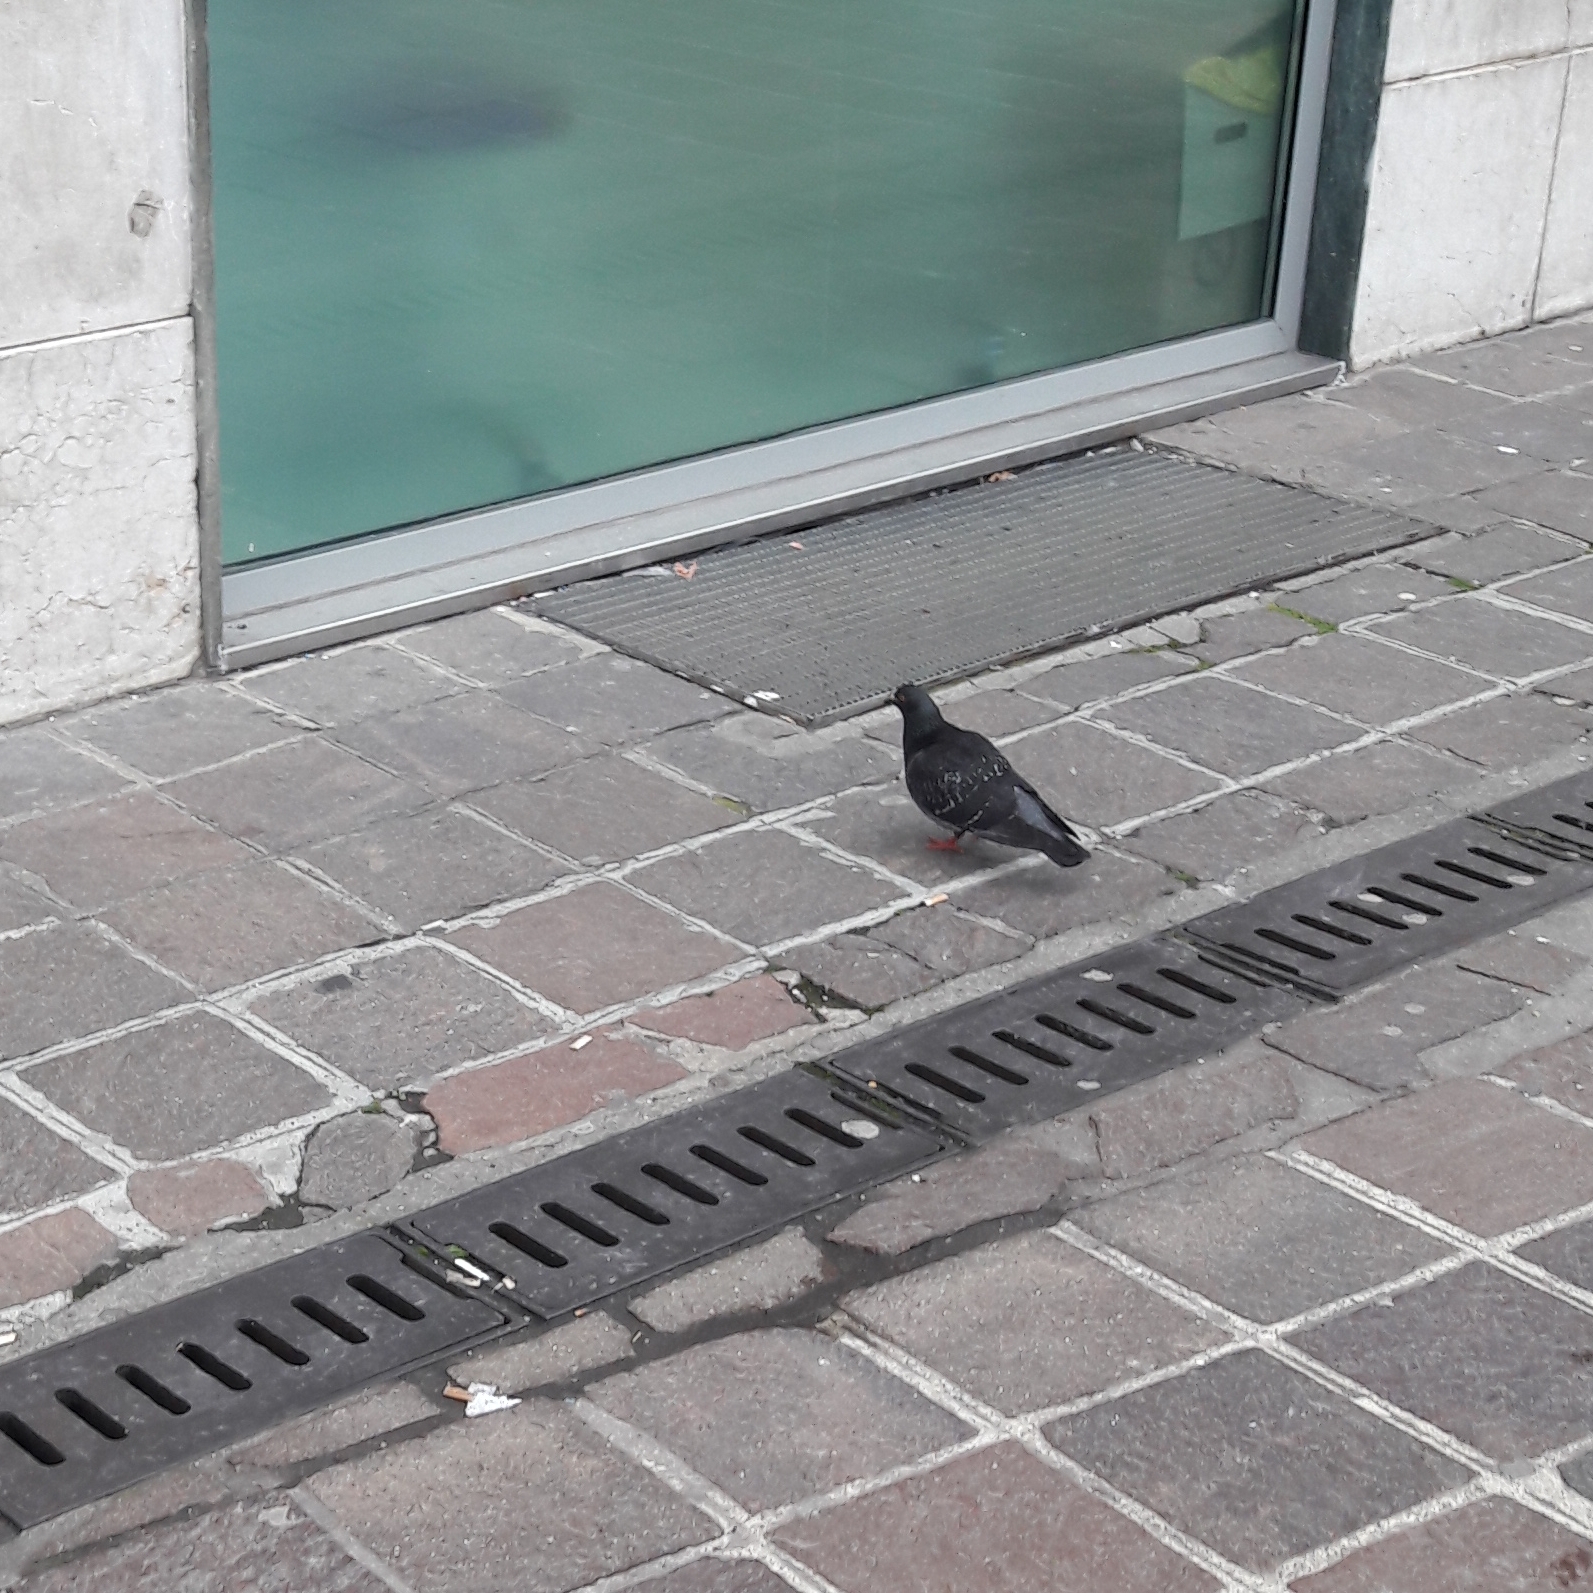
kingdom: Animalia
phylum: Chordata
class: Aves
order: Columbiformes
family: Columbidae
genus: Columba
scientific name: Columba livia
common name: Rock pigeon
